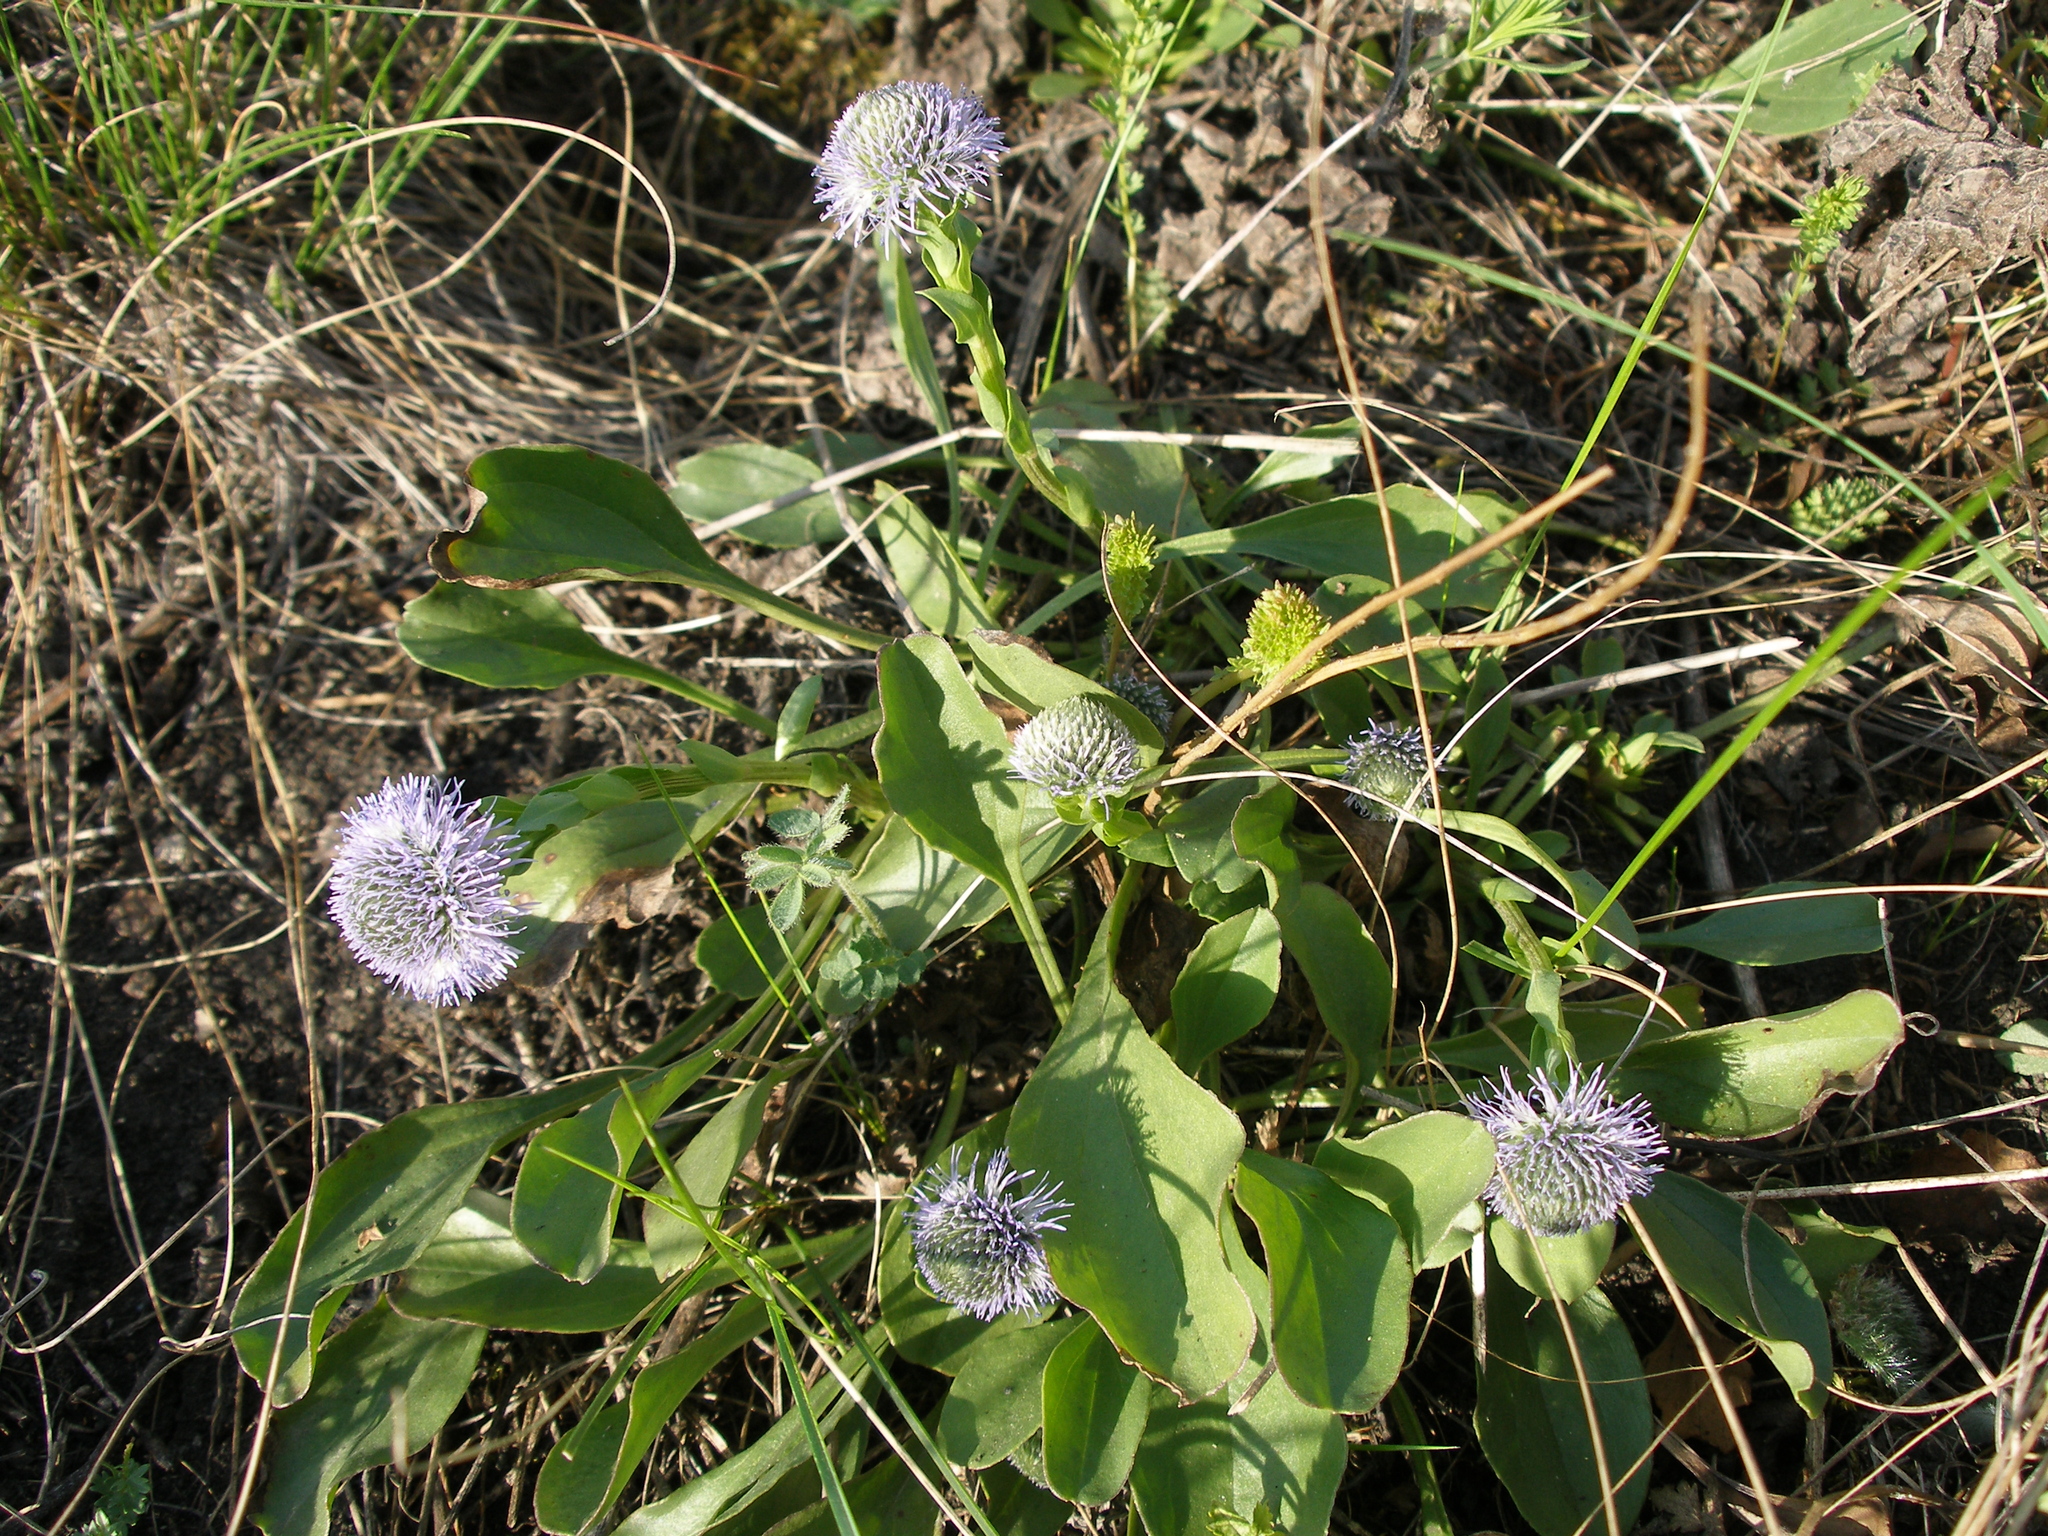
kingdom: Plantae
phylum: Tracheophyta
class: Magnoliopsida
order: Lamiales
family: Plantaginaceae
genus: Globularia
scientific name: Globularia bisnagarica
